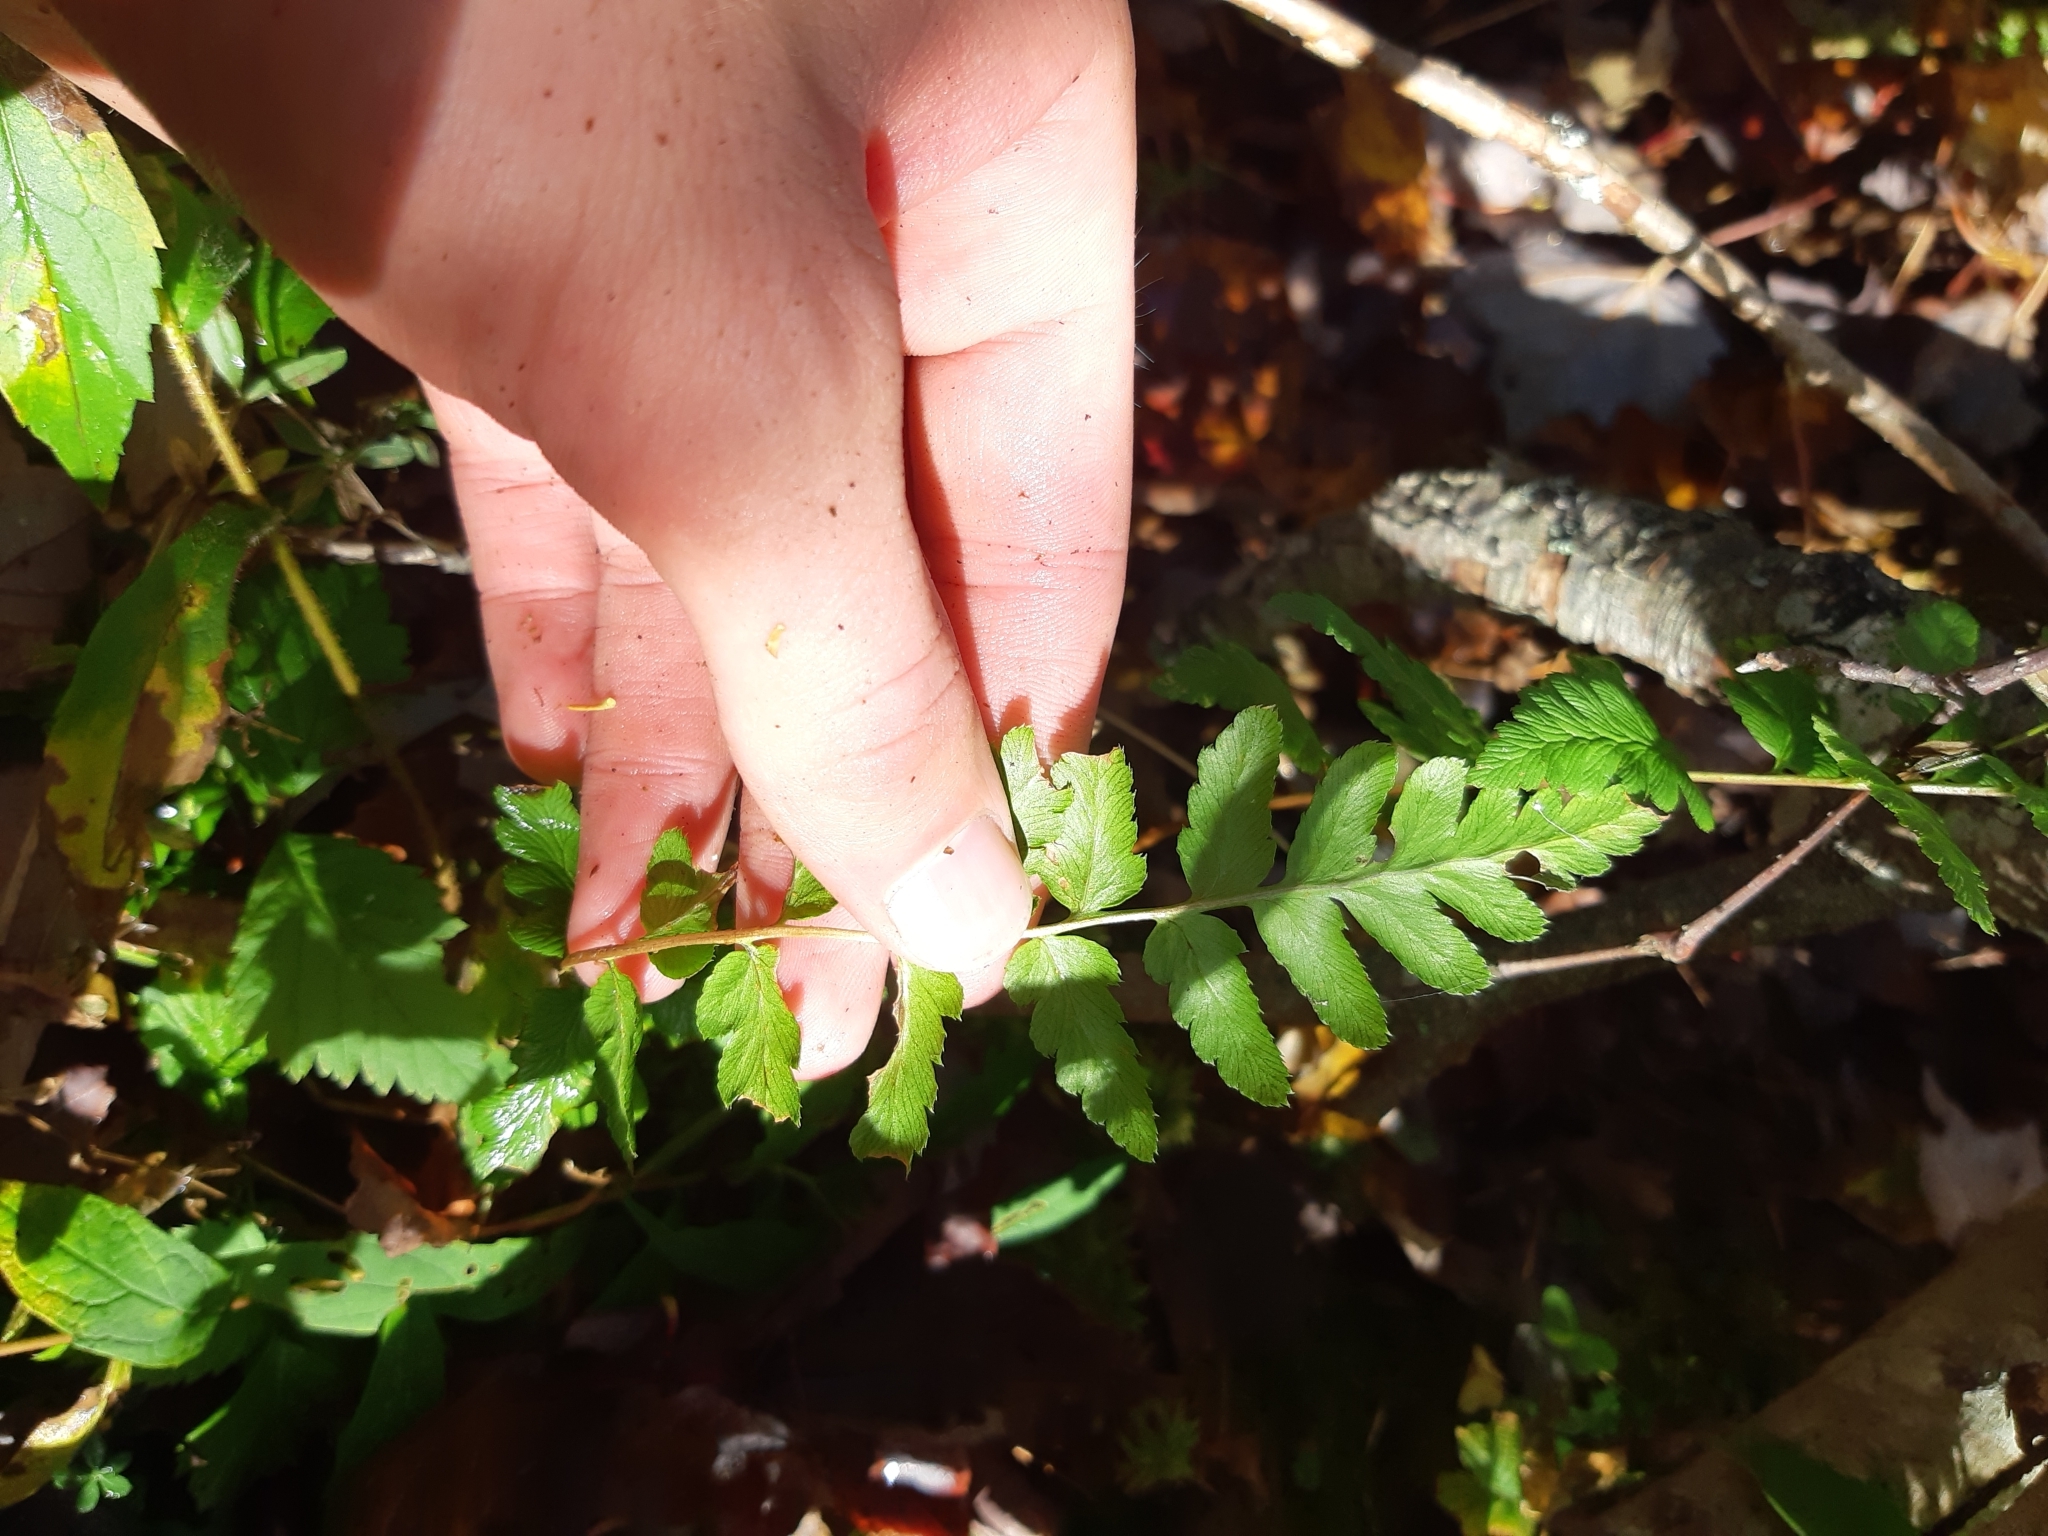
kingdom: Plantae
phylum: Tracheophyta
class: Polypodiopsida
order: Polypodiales
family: Dryopteridaceae
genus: Dryopteris
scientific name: Dryopteris cristata
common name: Crested wood fern
